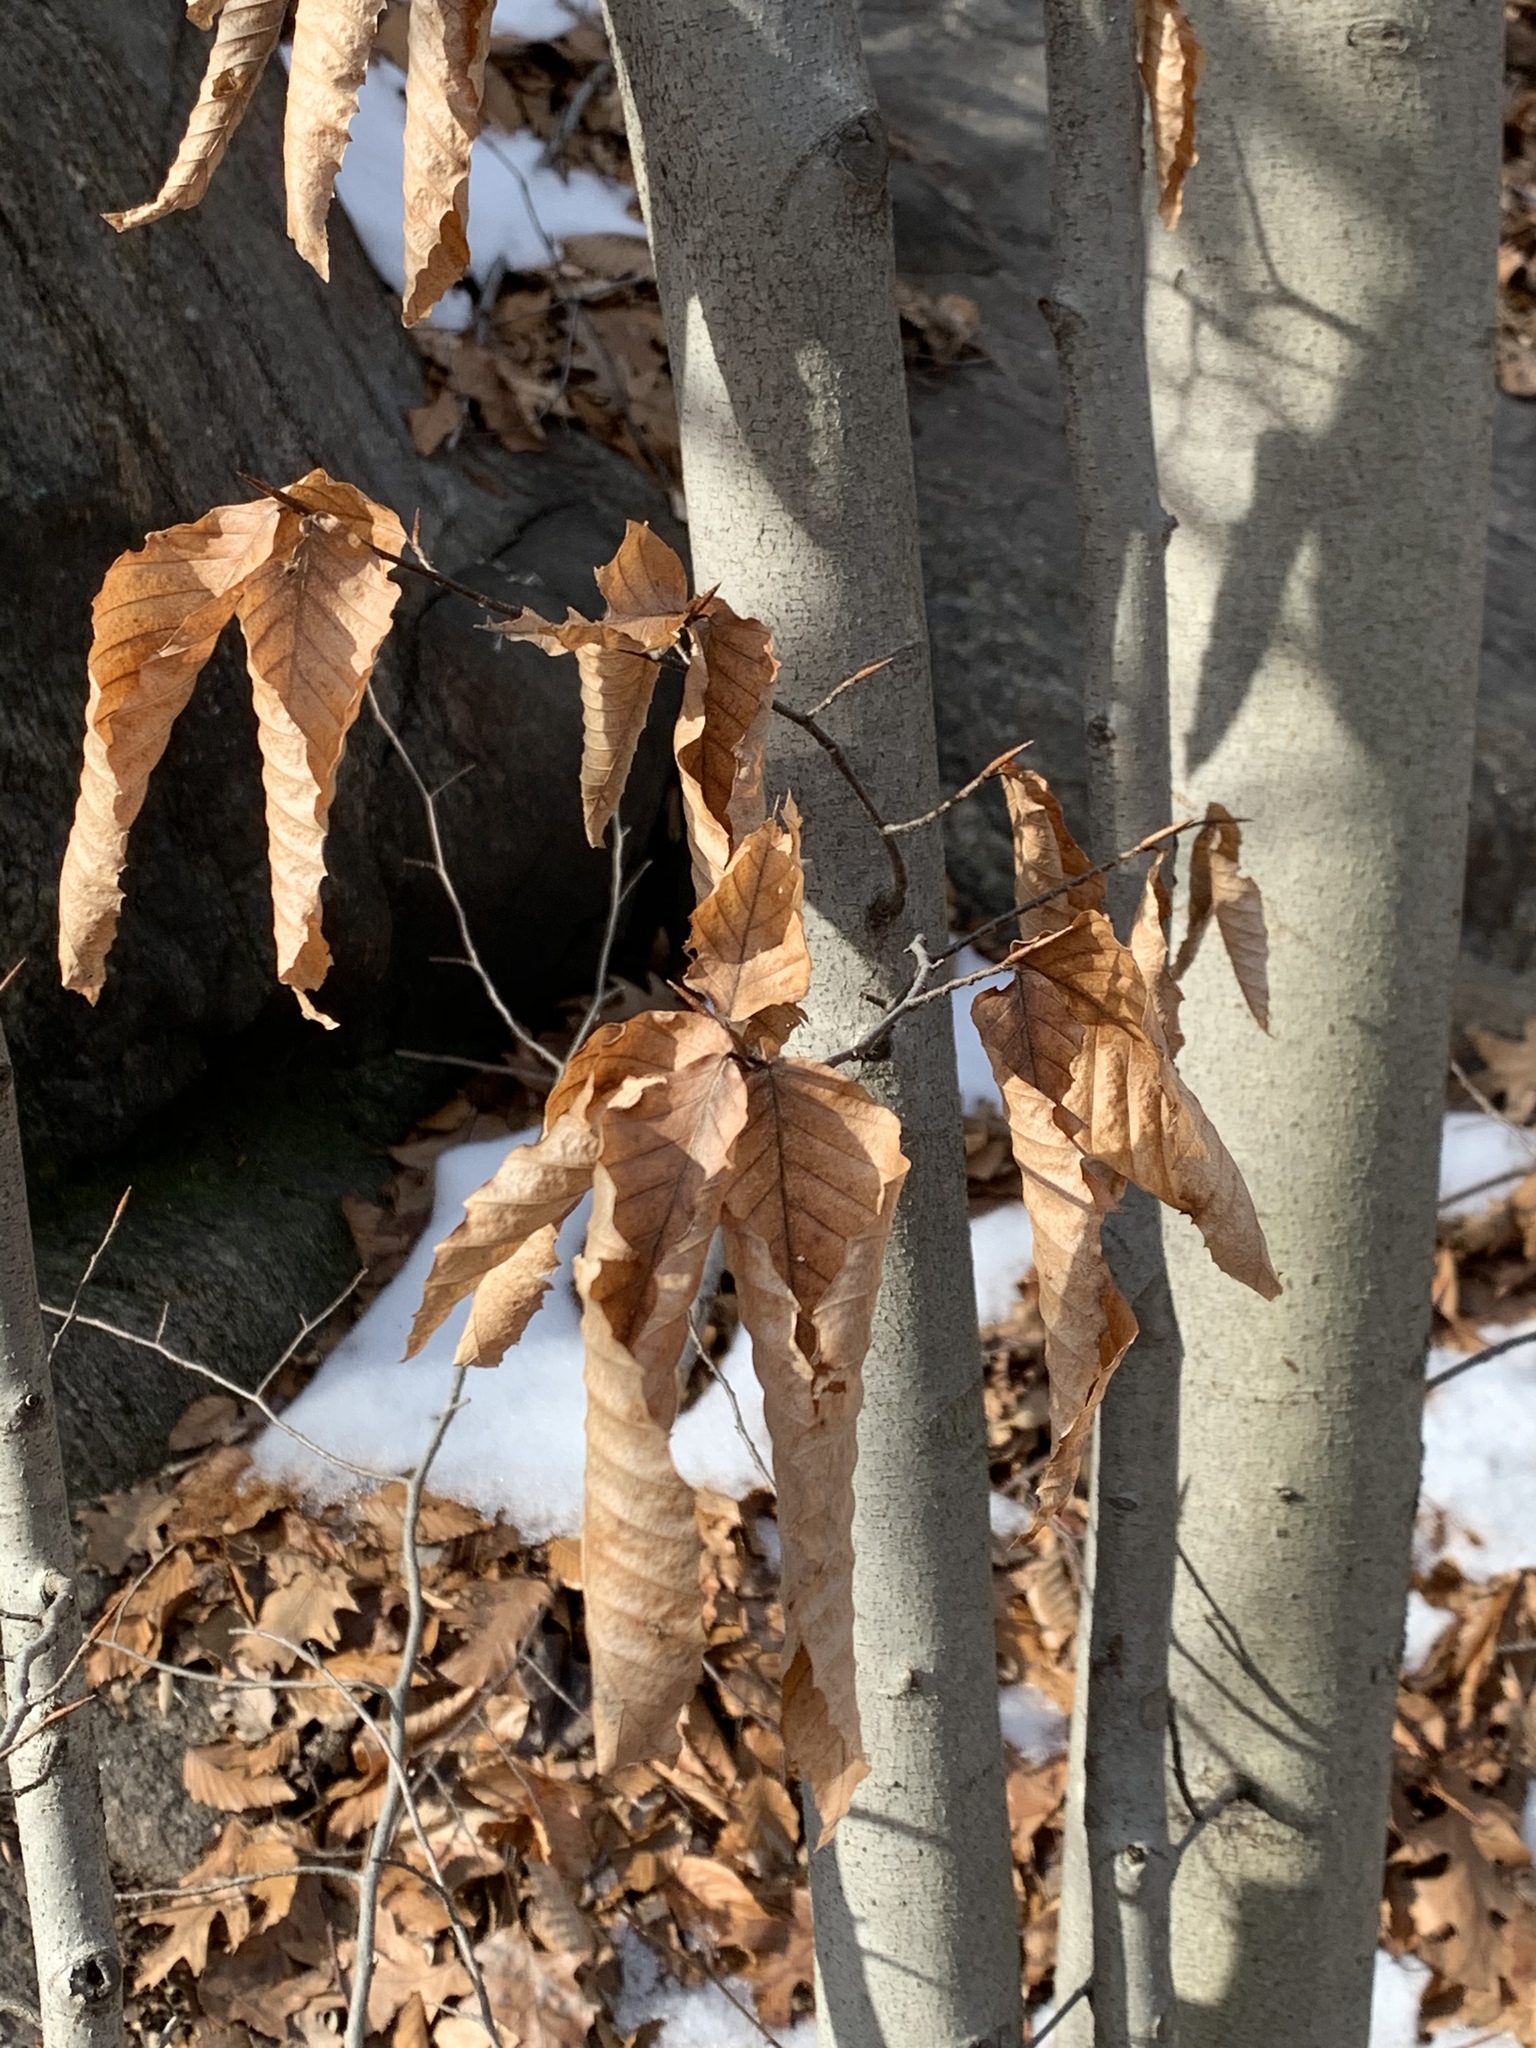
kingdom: Plantae
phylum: Tracheophyta
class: Magnoliopsida
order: Fagales
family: Fagaceae
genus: Fagus
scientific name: Fagus grandifolia
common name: American beech
